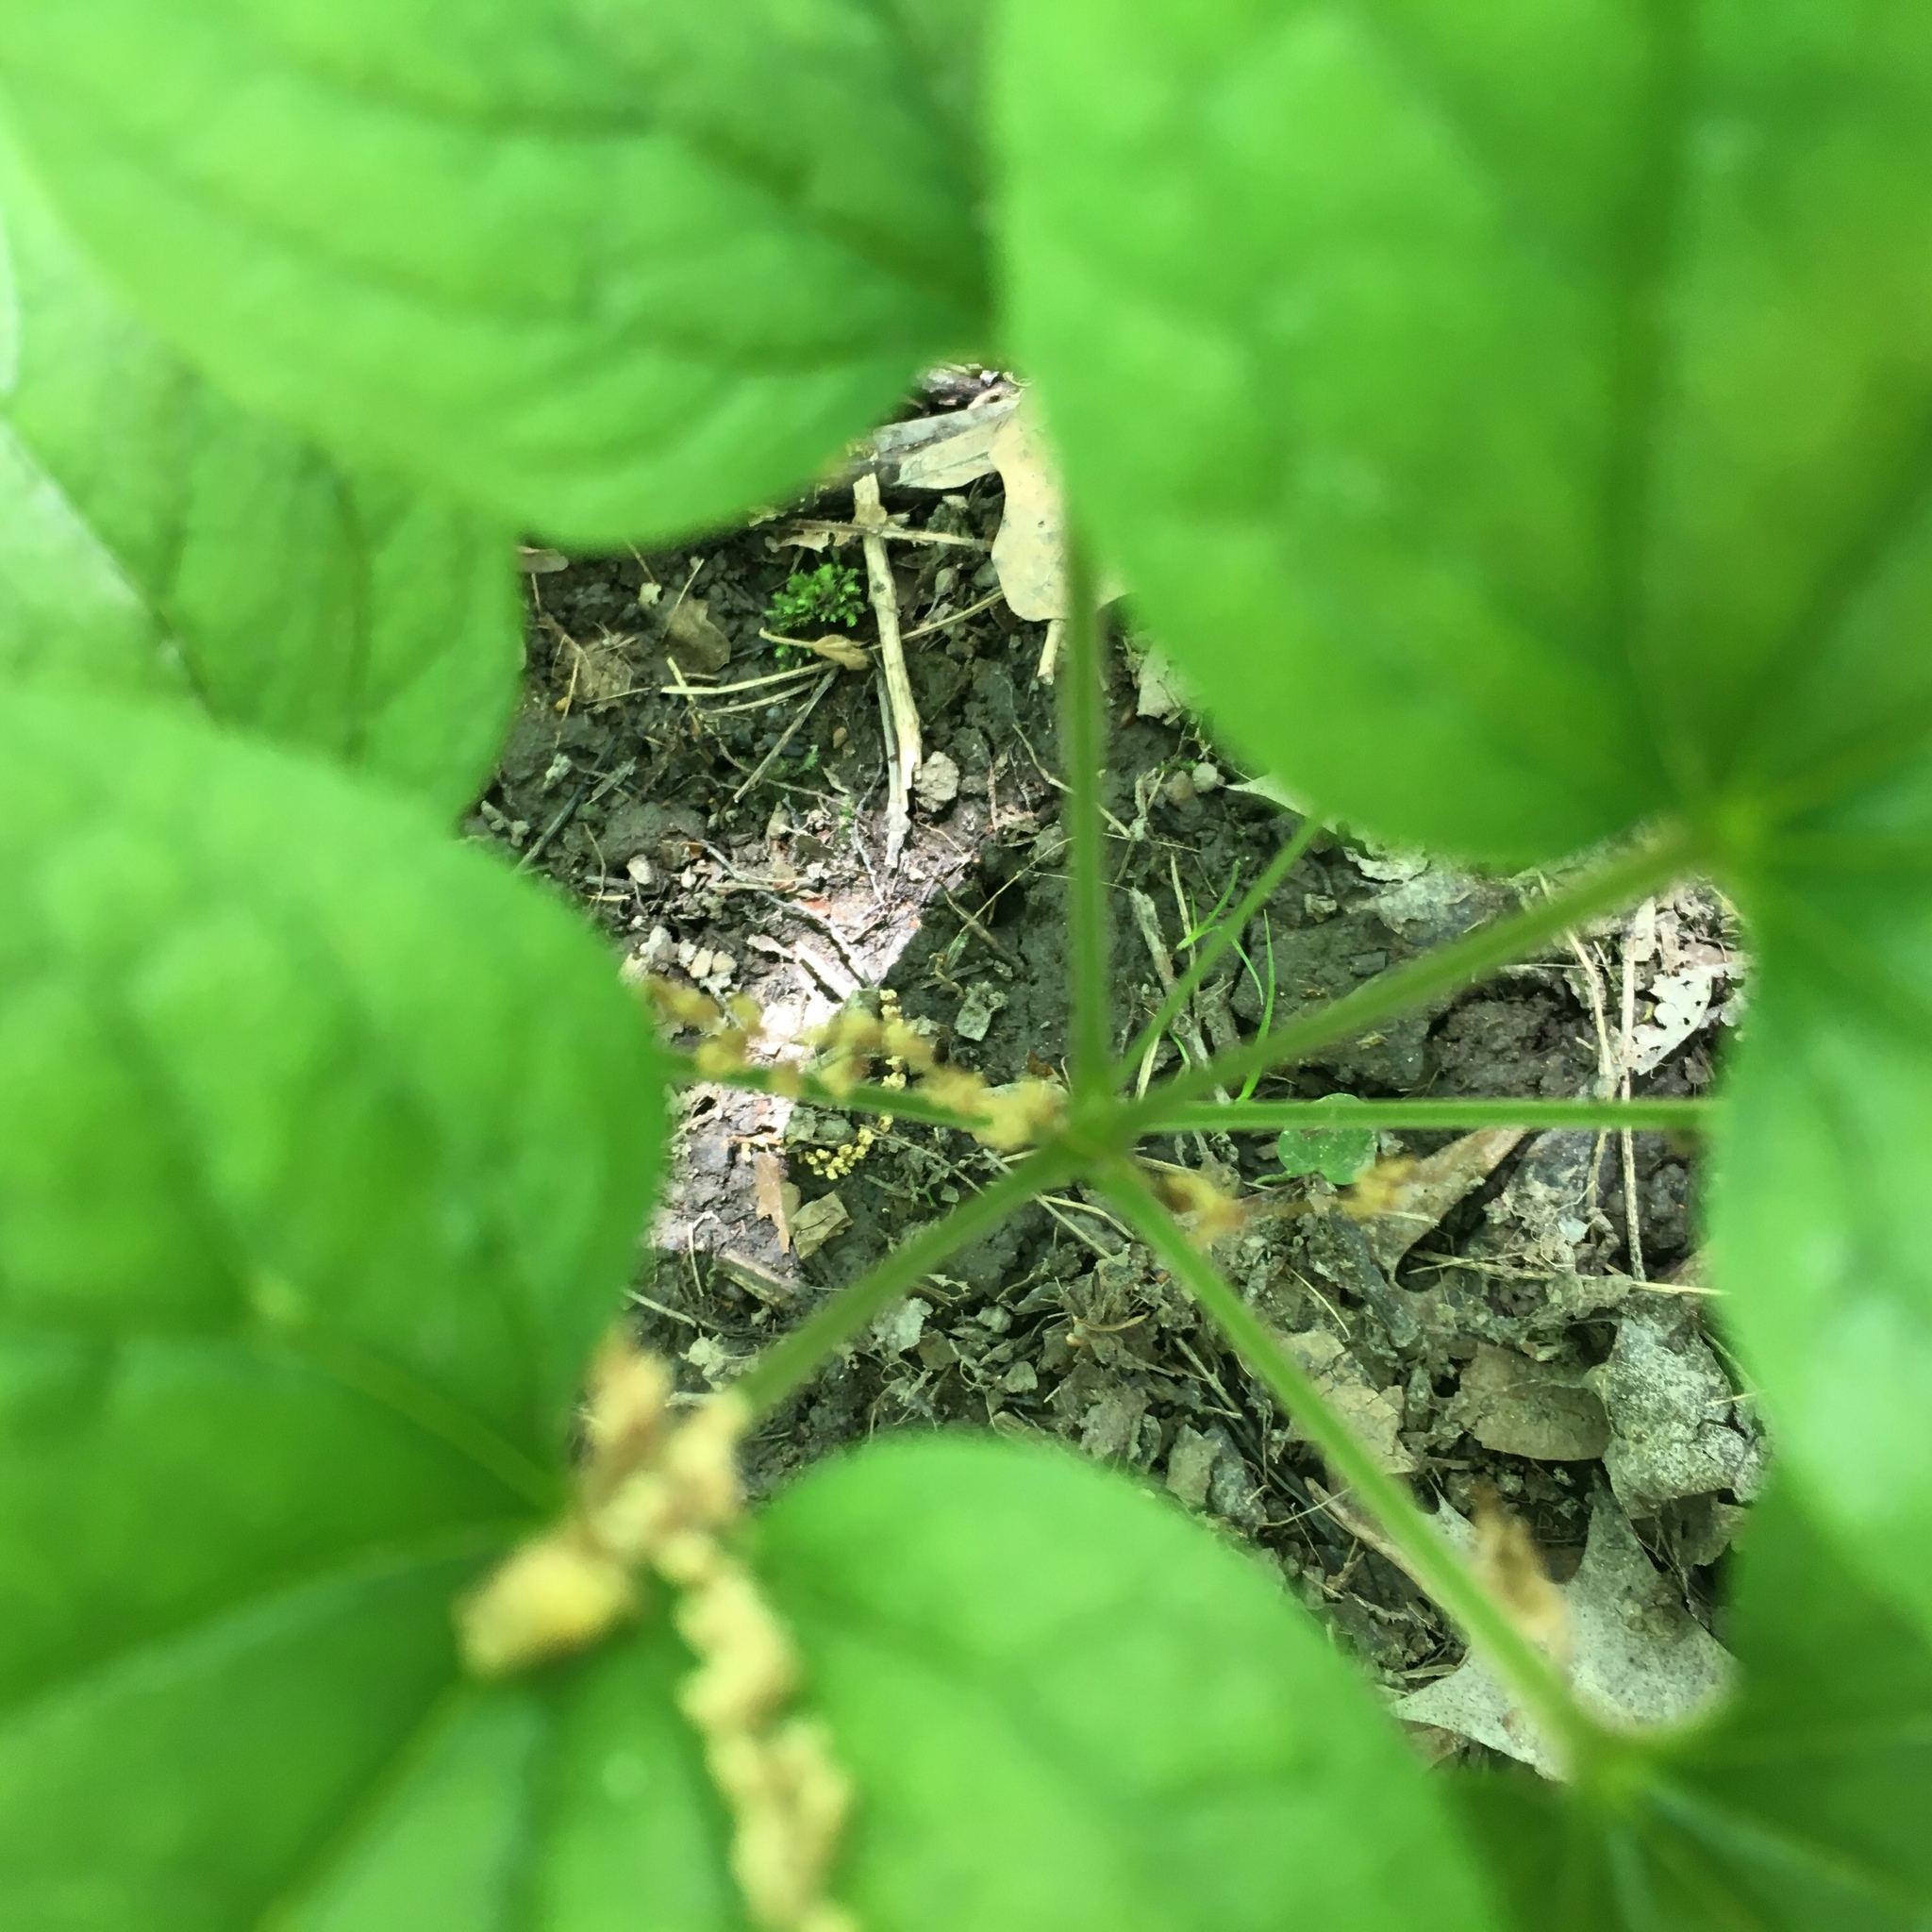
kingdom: Plantae
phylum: Tracheophyta
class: Liliopsida
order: Liliales
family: Smilacaceae
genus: Smilax
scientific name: Smilax ecirrhata
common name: Upright carrionflower
